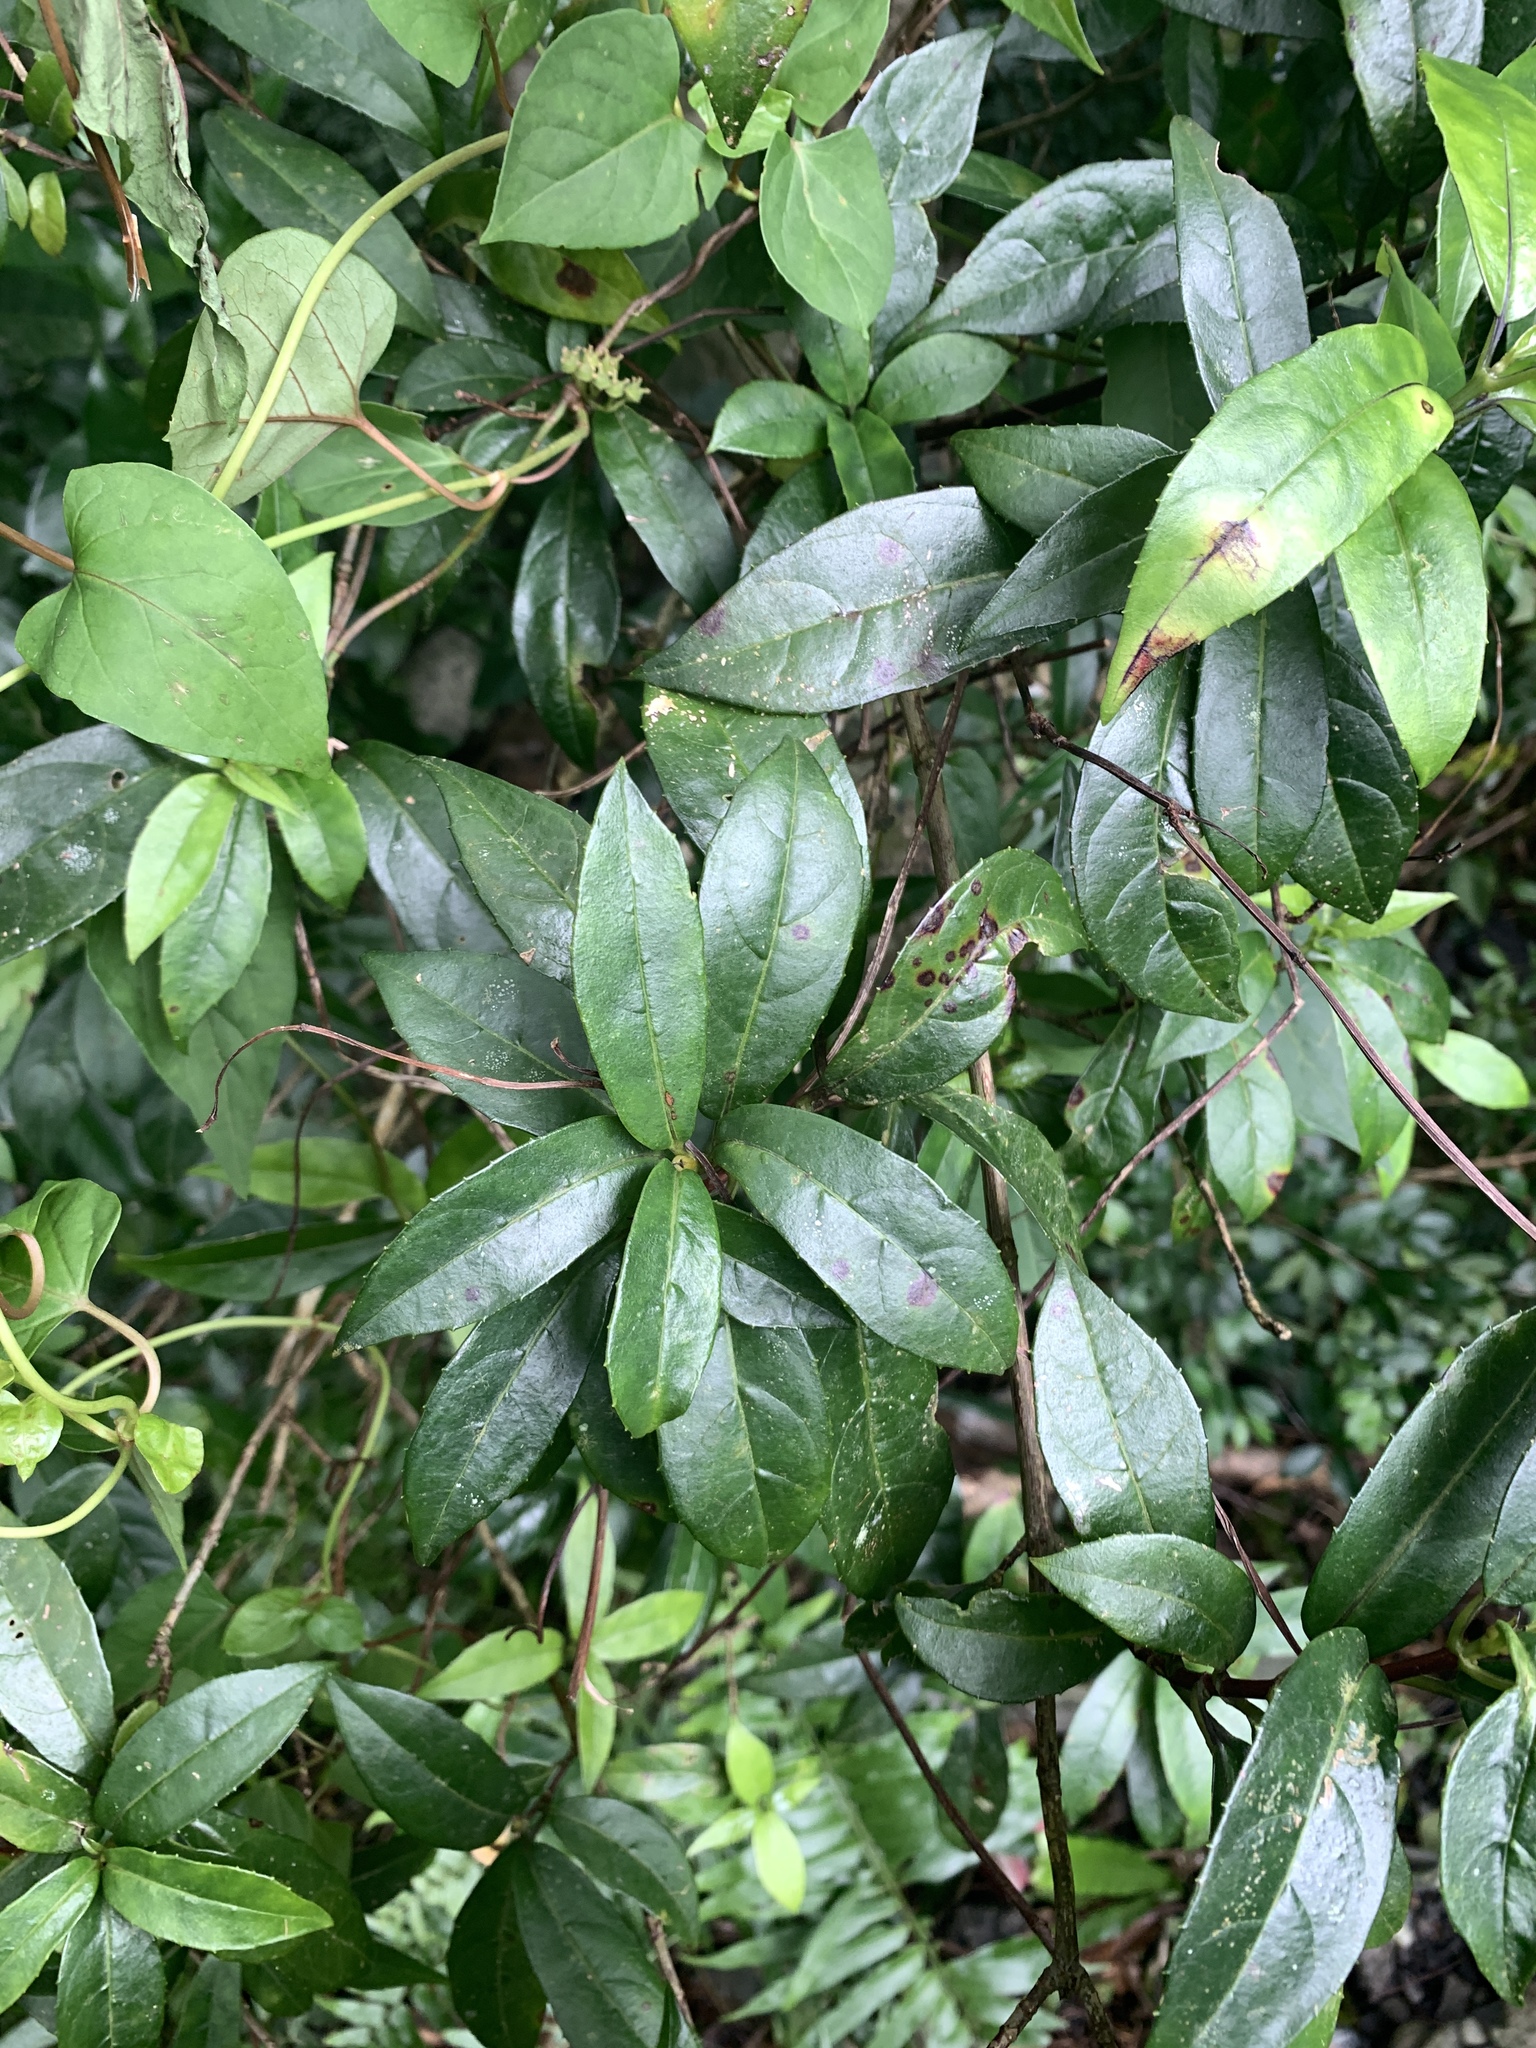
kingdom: Plantae
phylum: Tracheophyta
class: Magnoliopsida
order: Cornales
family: Hydrangeaceae
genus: Hydrangea
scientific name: Hydrangea chinensis
